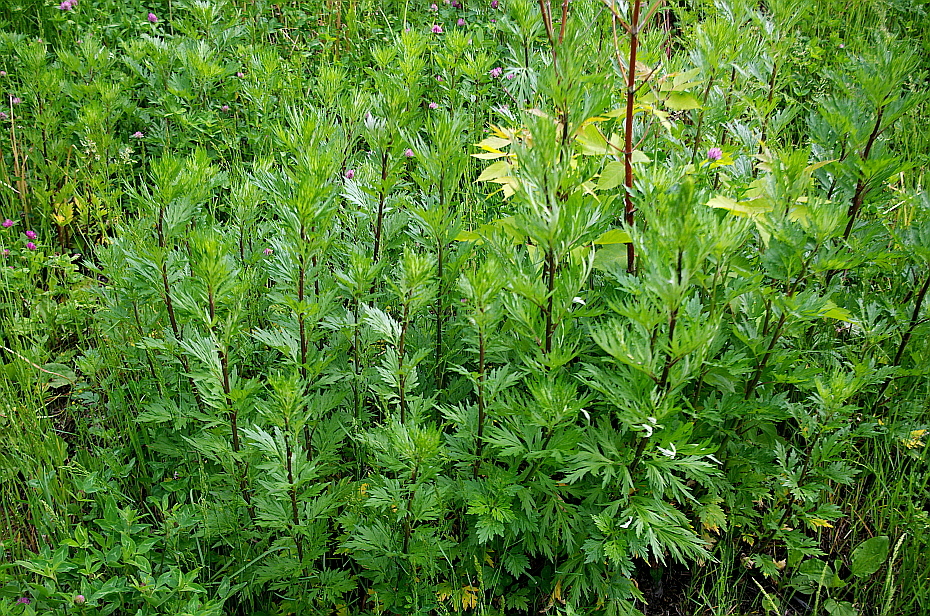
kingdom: Plantae
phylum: Tracheophyta
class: Magnoliopsida
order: Asterales
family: Asteraceae
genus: Artemisia
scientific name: Artemisia vulgaris
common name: Mugwort
